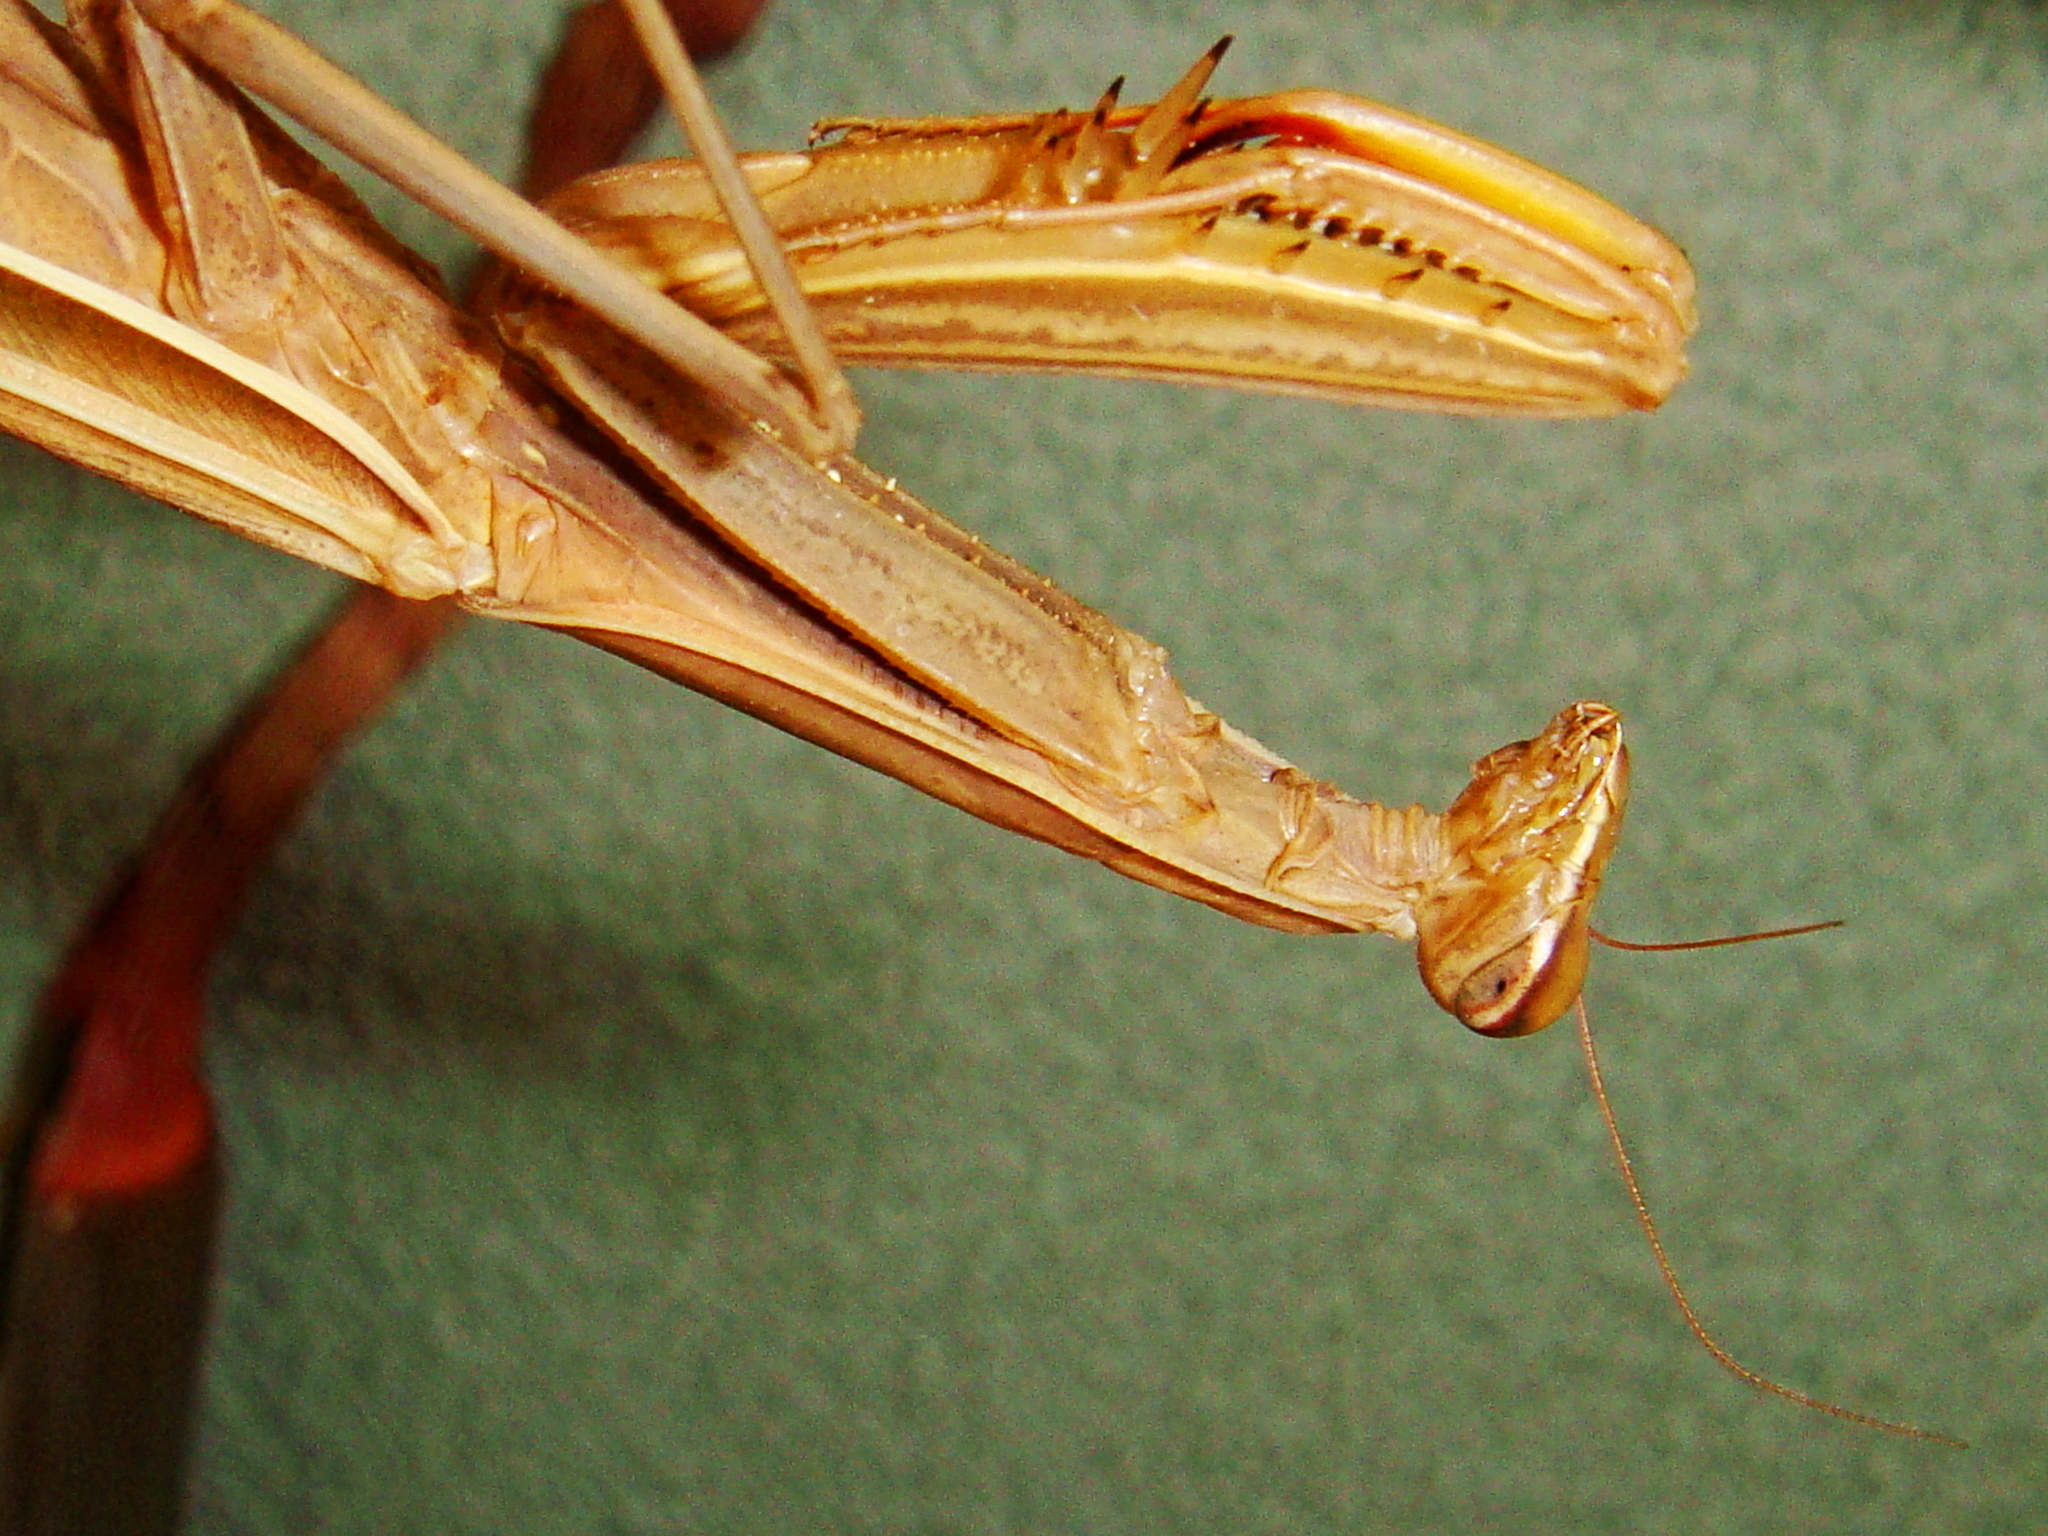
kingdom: Animalia
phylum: Arthropoda
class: Insecta
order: Mantodea
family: Mantidae
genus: Mantis
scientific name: Mantis religiosa
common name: Praying mantis
